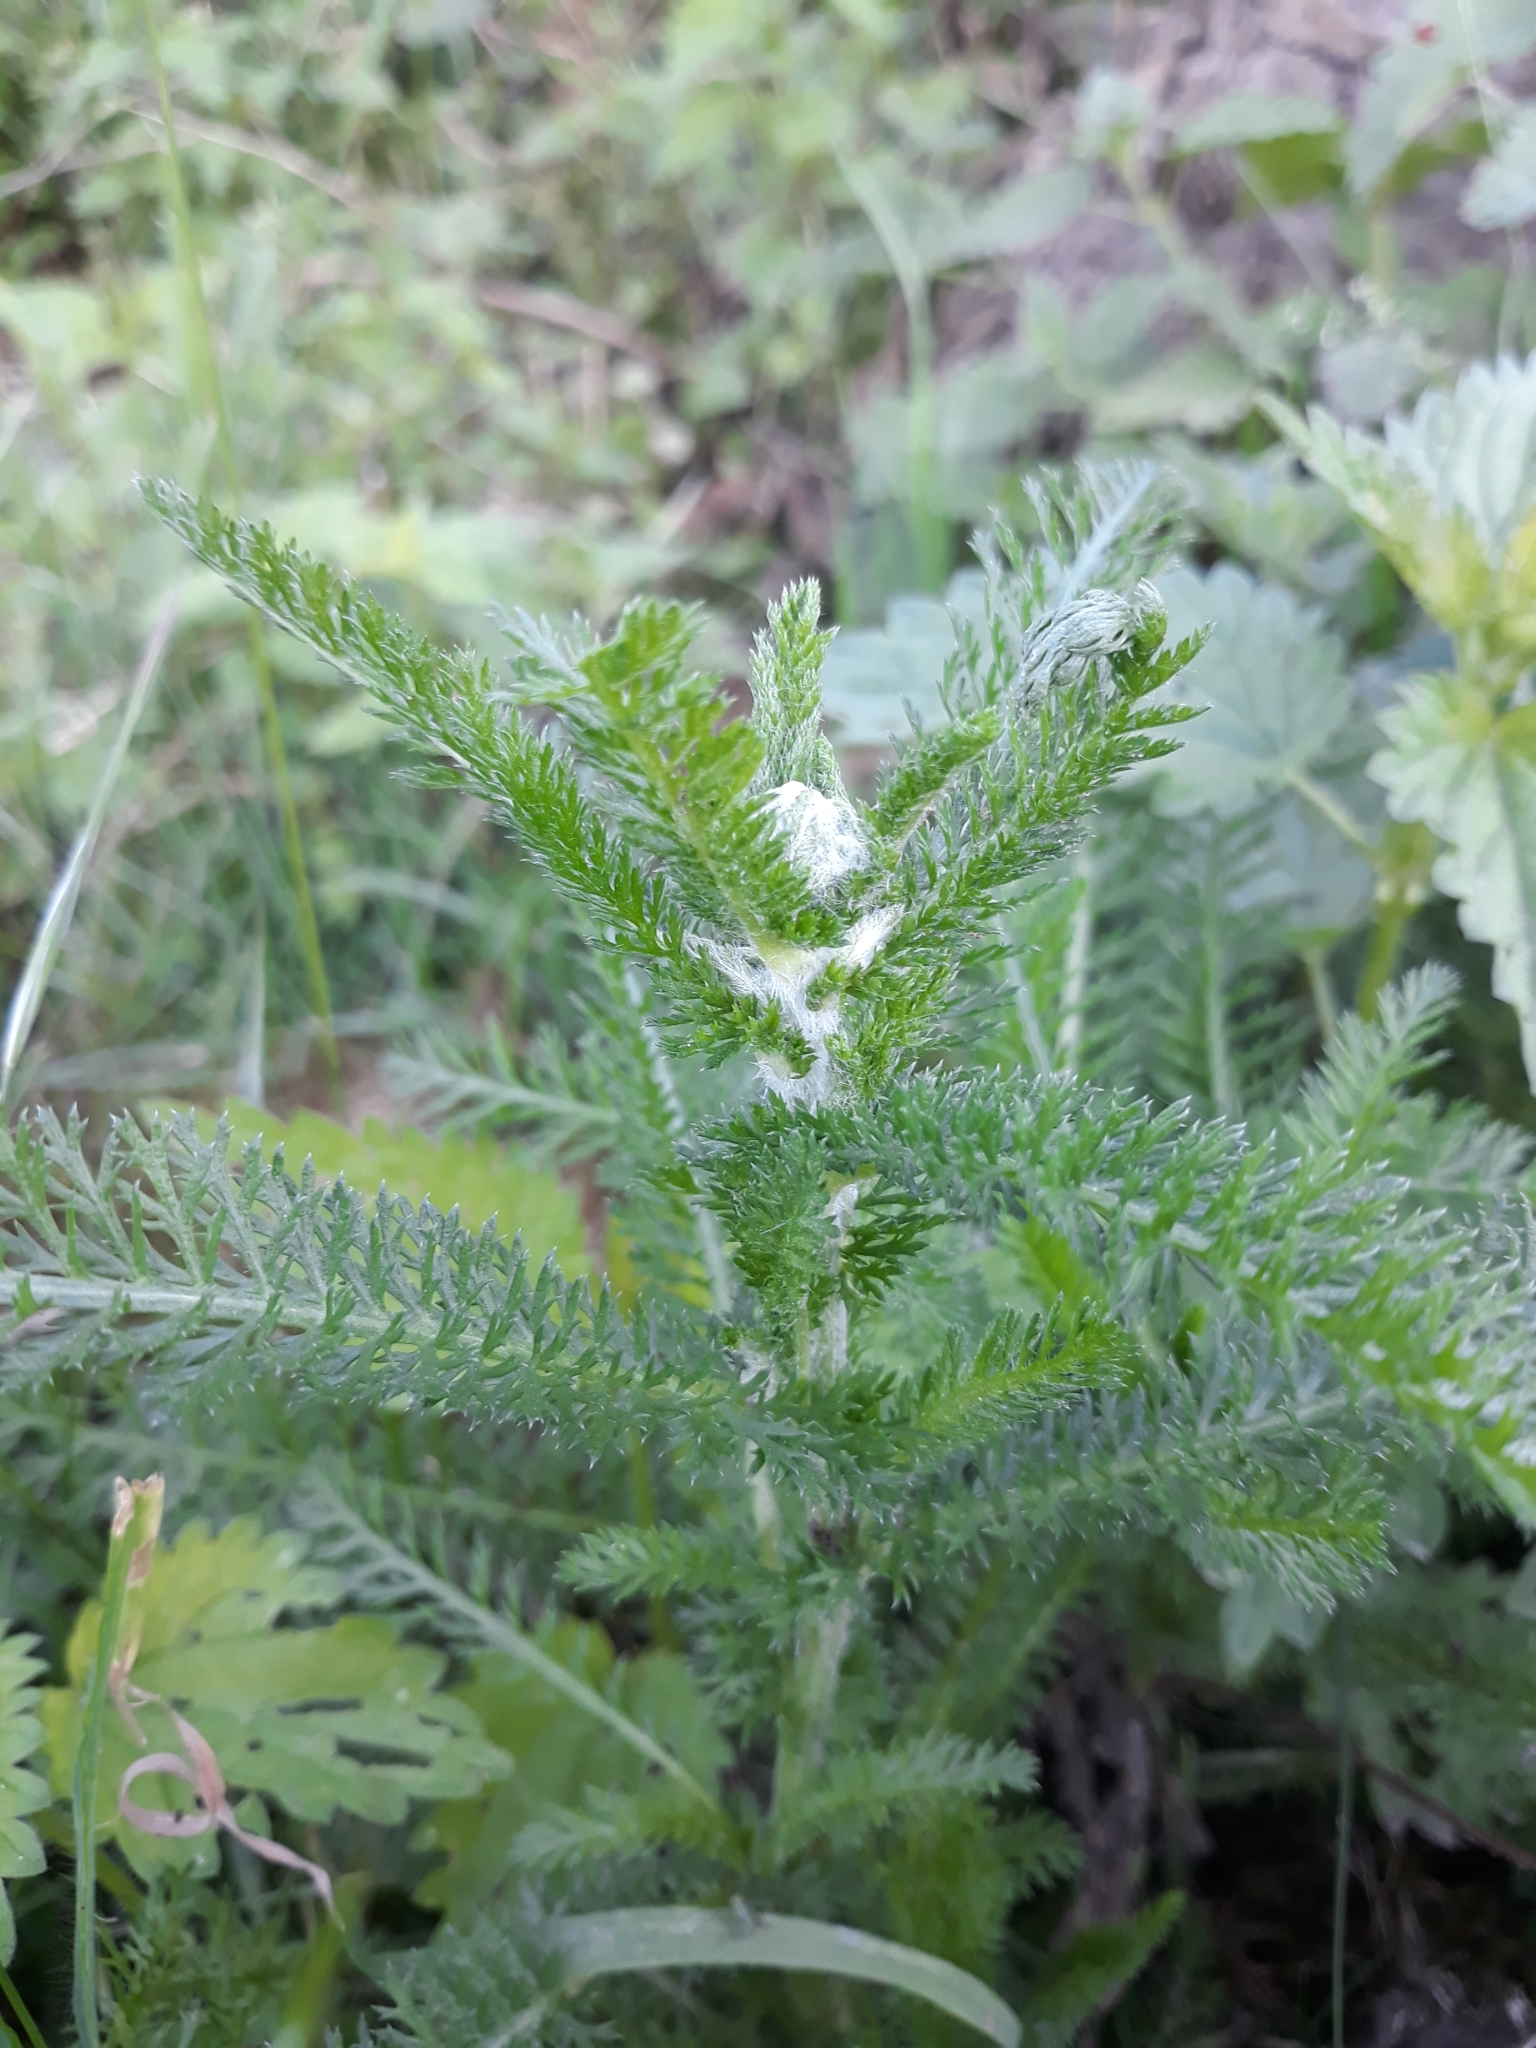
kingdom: Plantae
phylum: Tracheophyta
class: Magnoliopsida
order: Asterales
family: Asteraceae
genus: Achillea
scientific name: Achillea millefolium
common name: Yarrow
